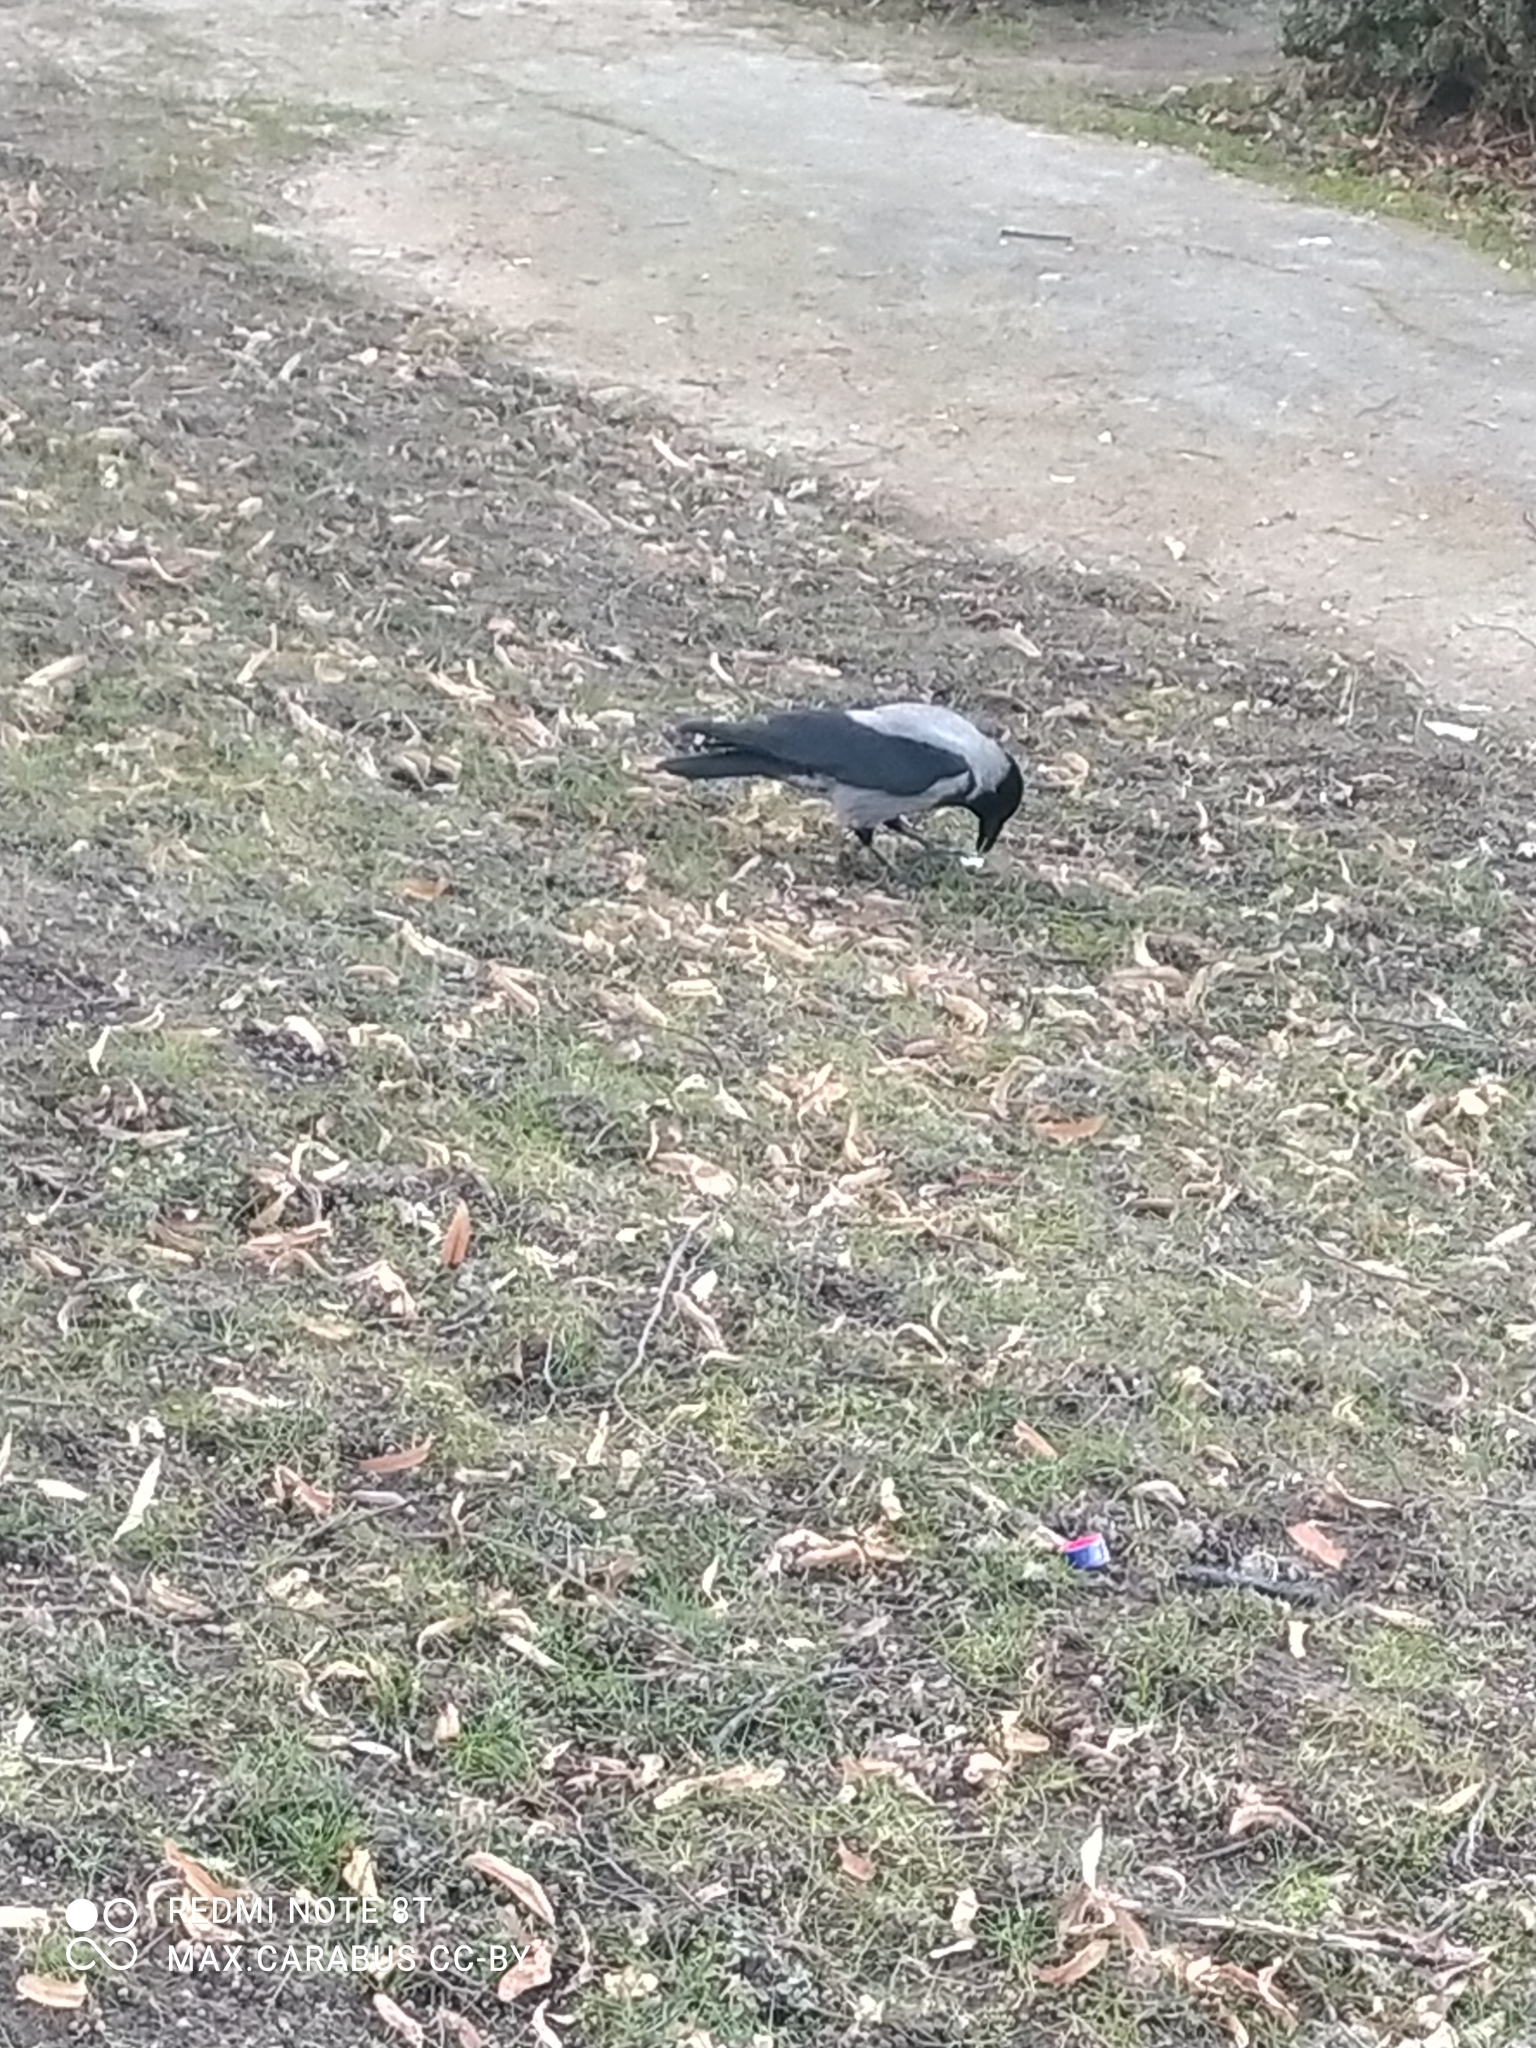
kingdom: Animalia
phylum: Chordata
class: Aves
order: Passeriformes
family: Corvidae
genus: Corvus
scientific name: Corvus cornix
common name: Hooded crow
